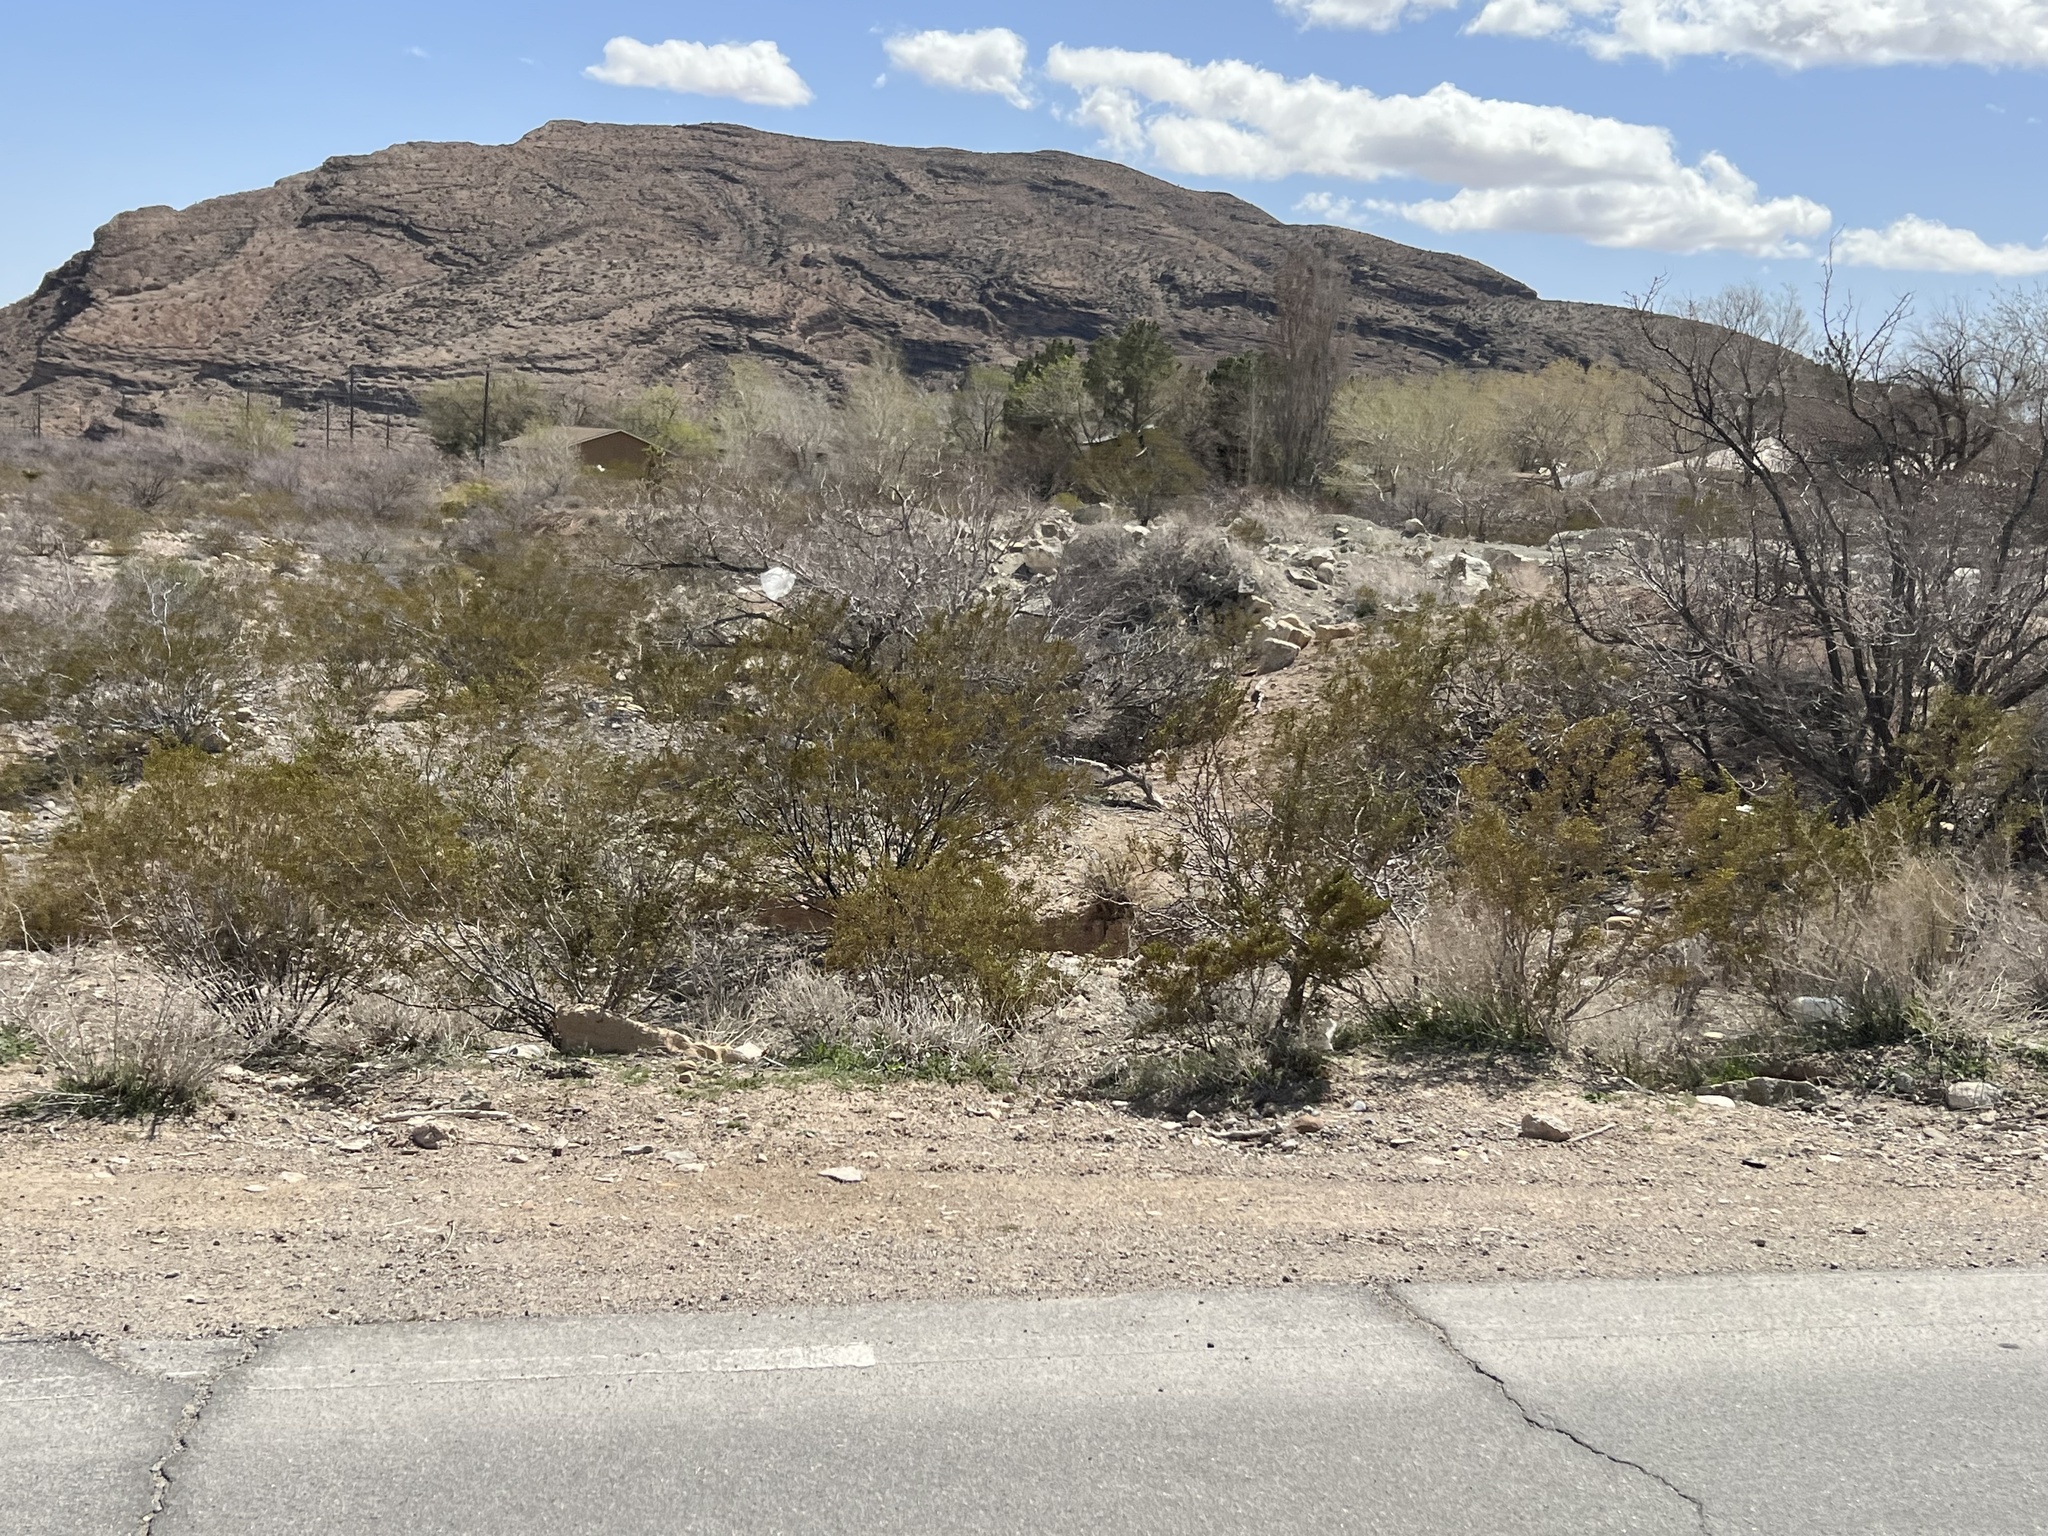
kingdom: Plantae
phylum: Tracheophyta
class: Magnoliopsida
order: Zygophyllales
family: Zygophyllaceae
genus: Larrea
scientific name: Larrea tridentata
